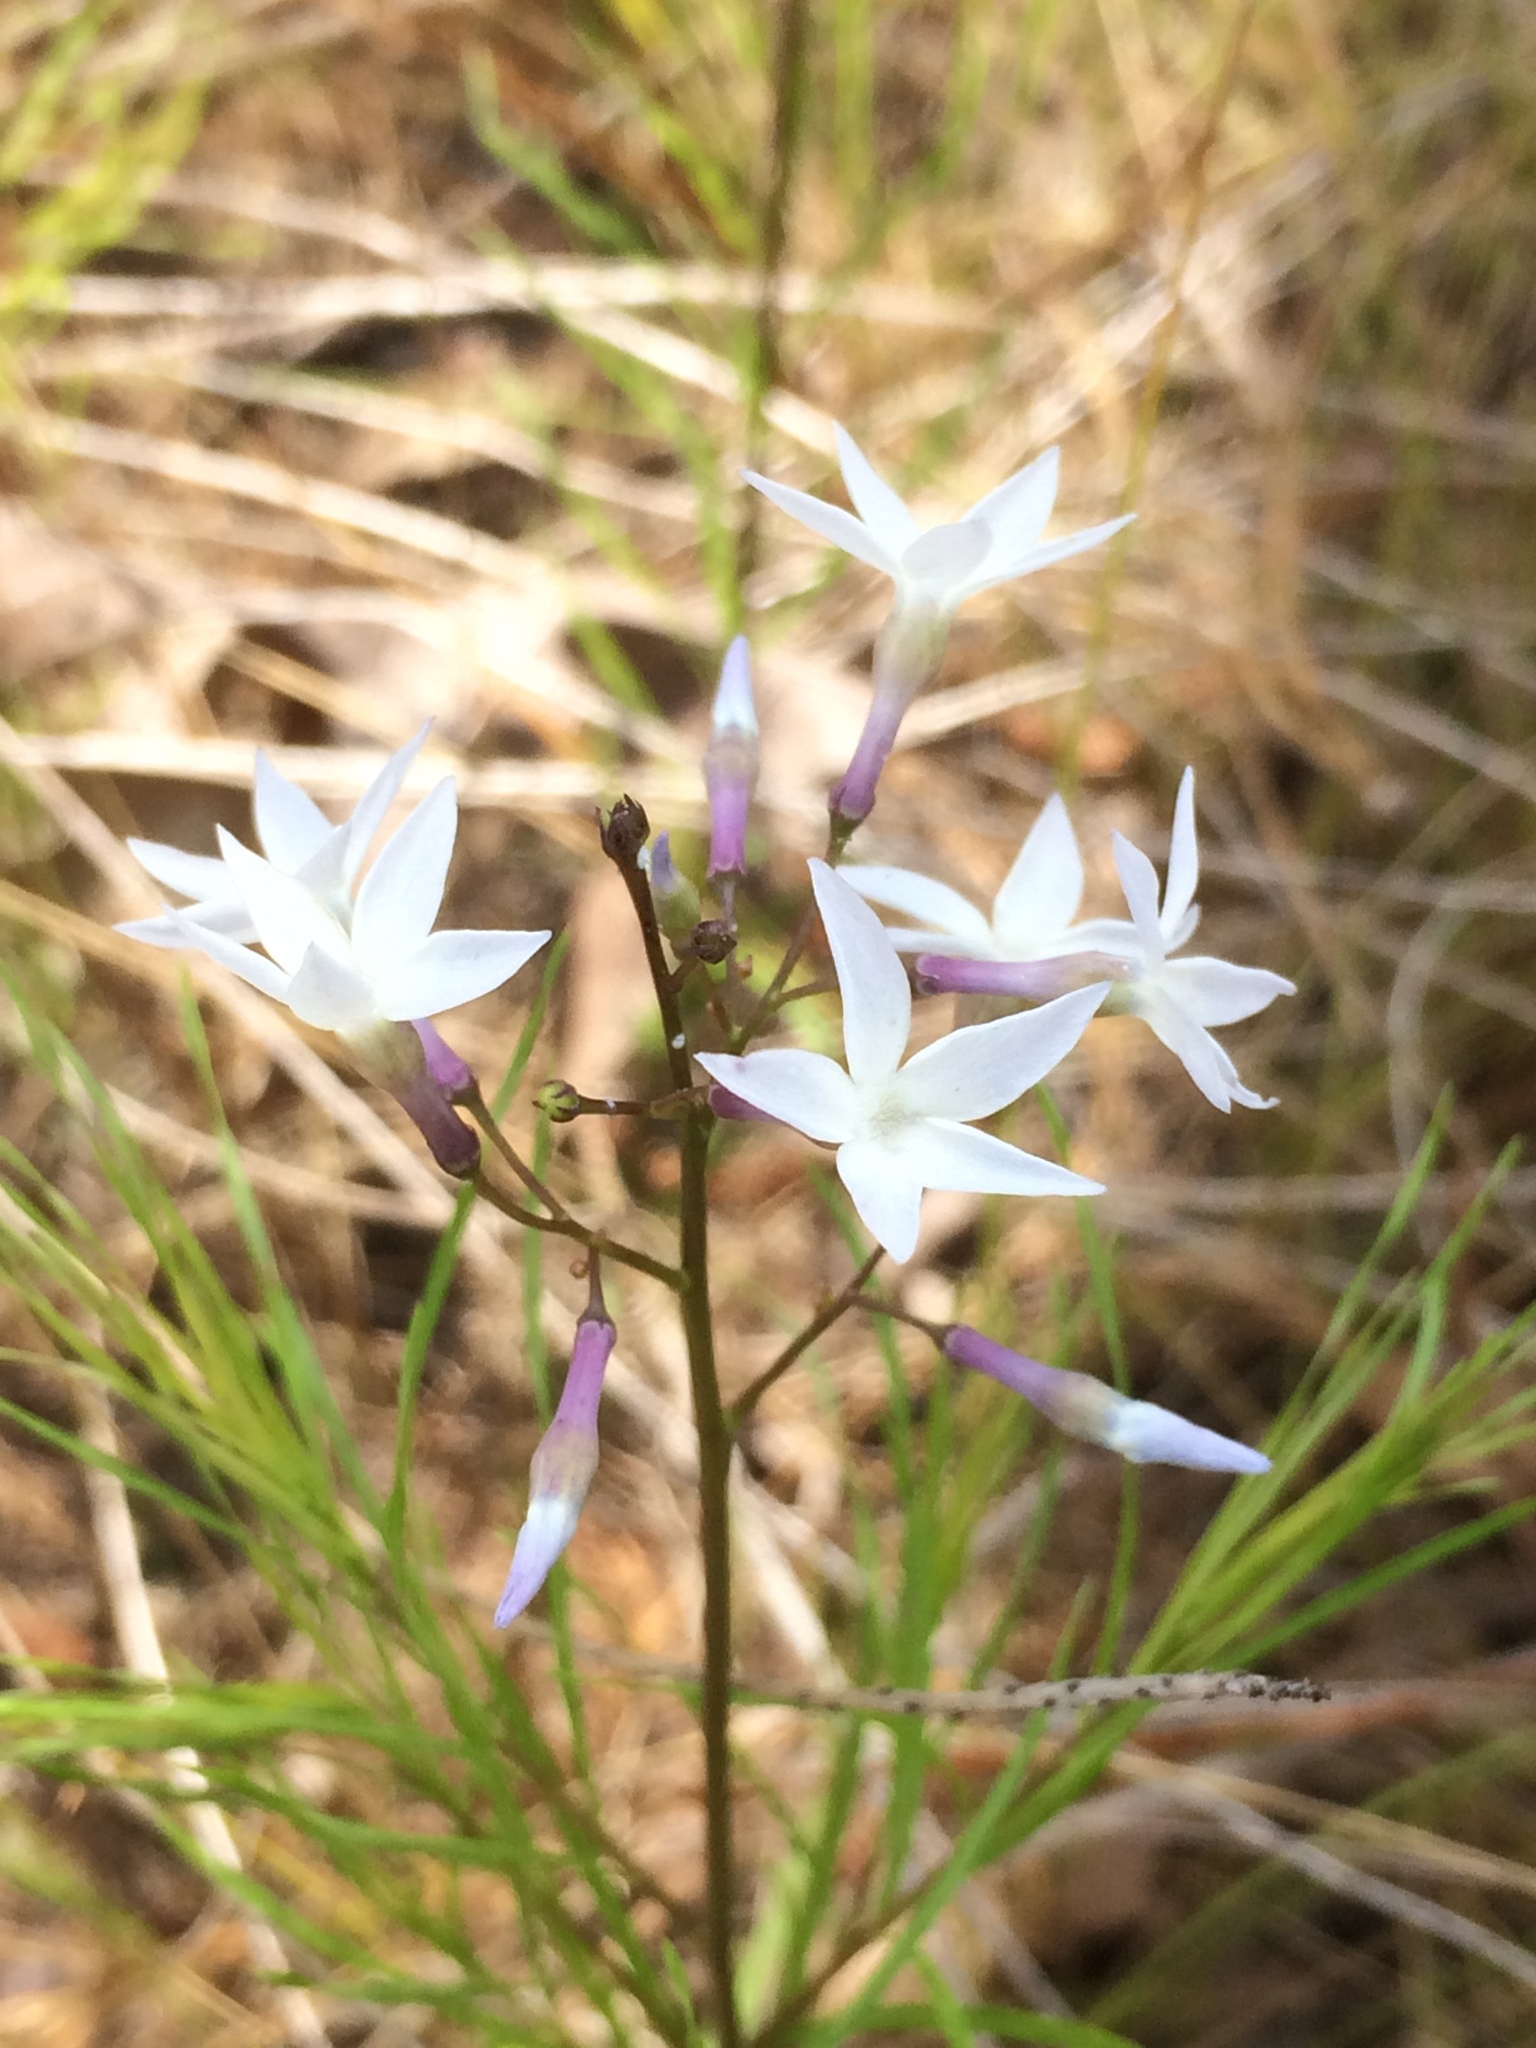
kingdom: Plantae
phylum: Tracheophyta
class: Magnoliopsida
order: Gentianales
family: Apocynaceae
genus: Amsonia
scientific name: Amsonia ciliata
